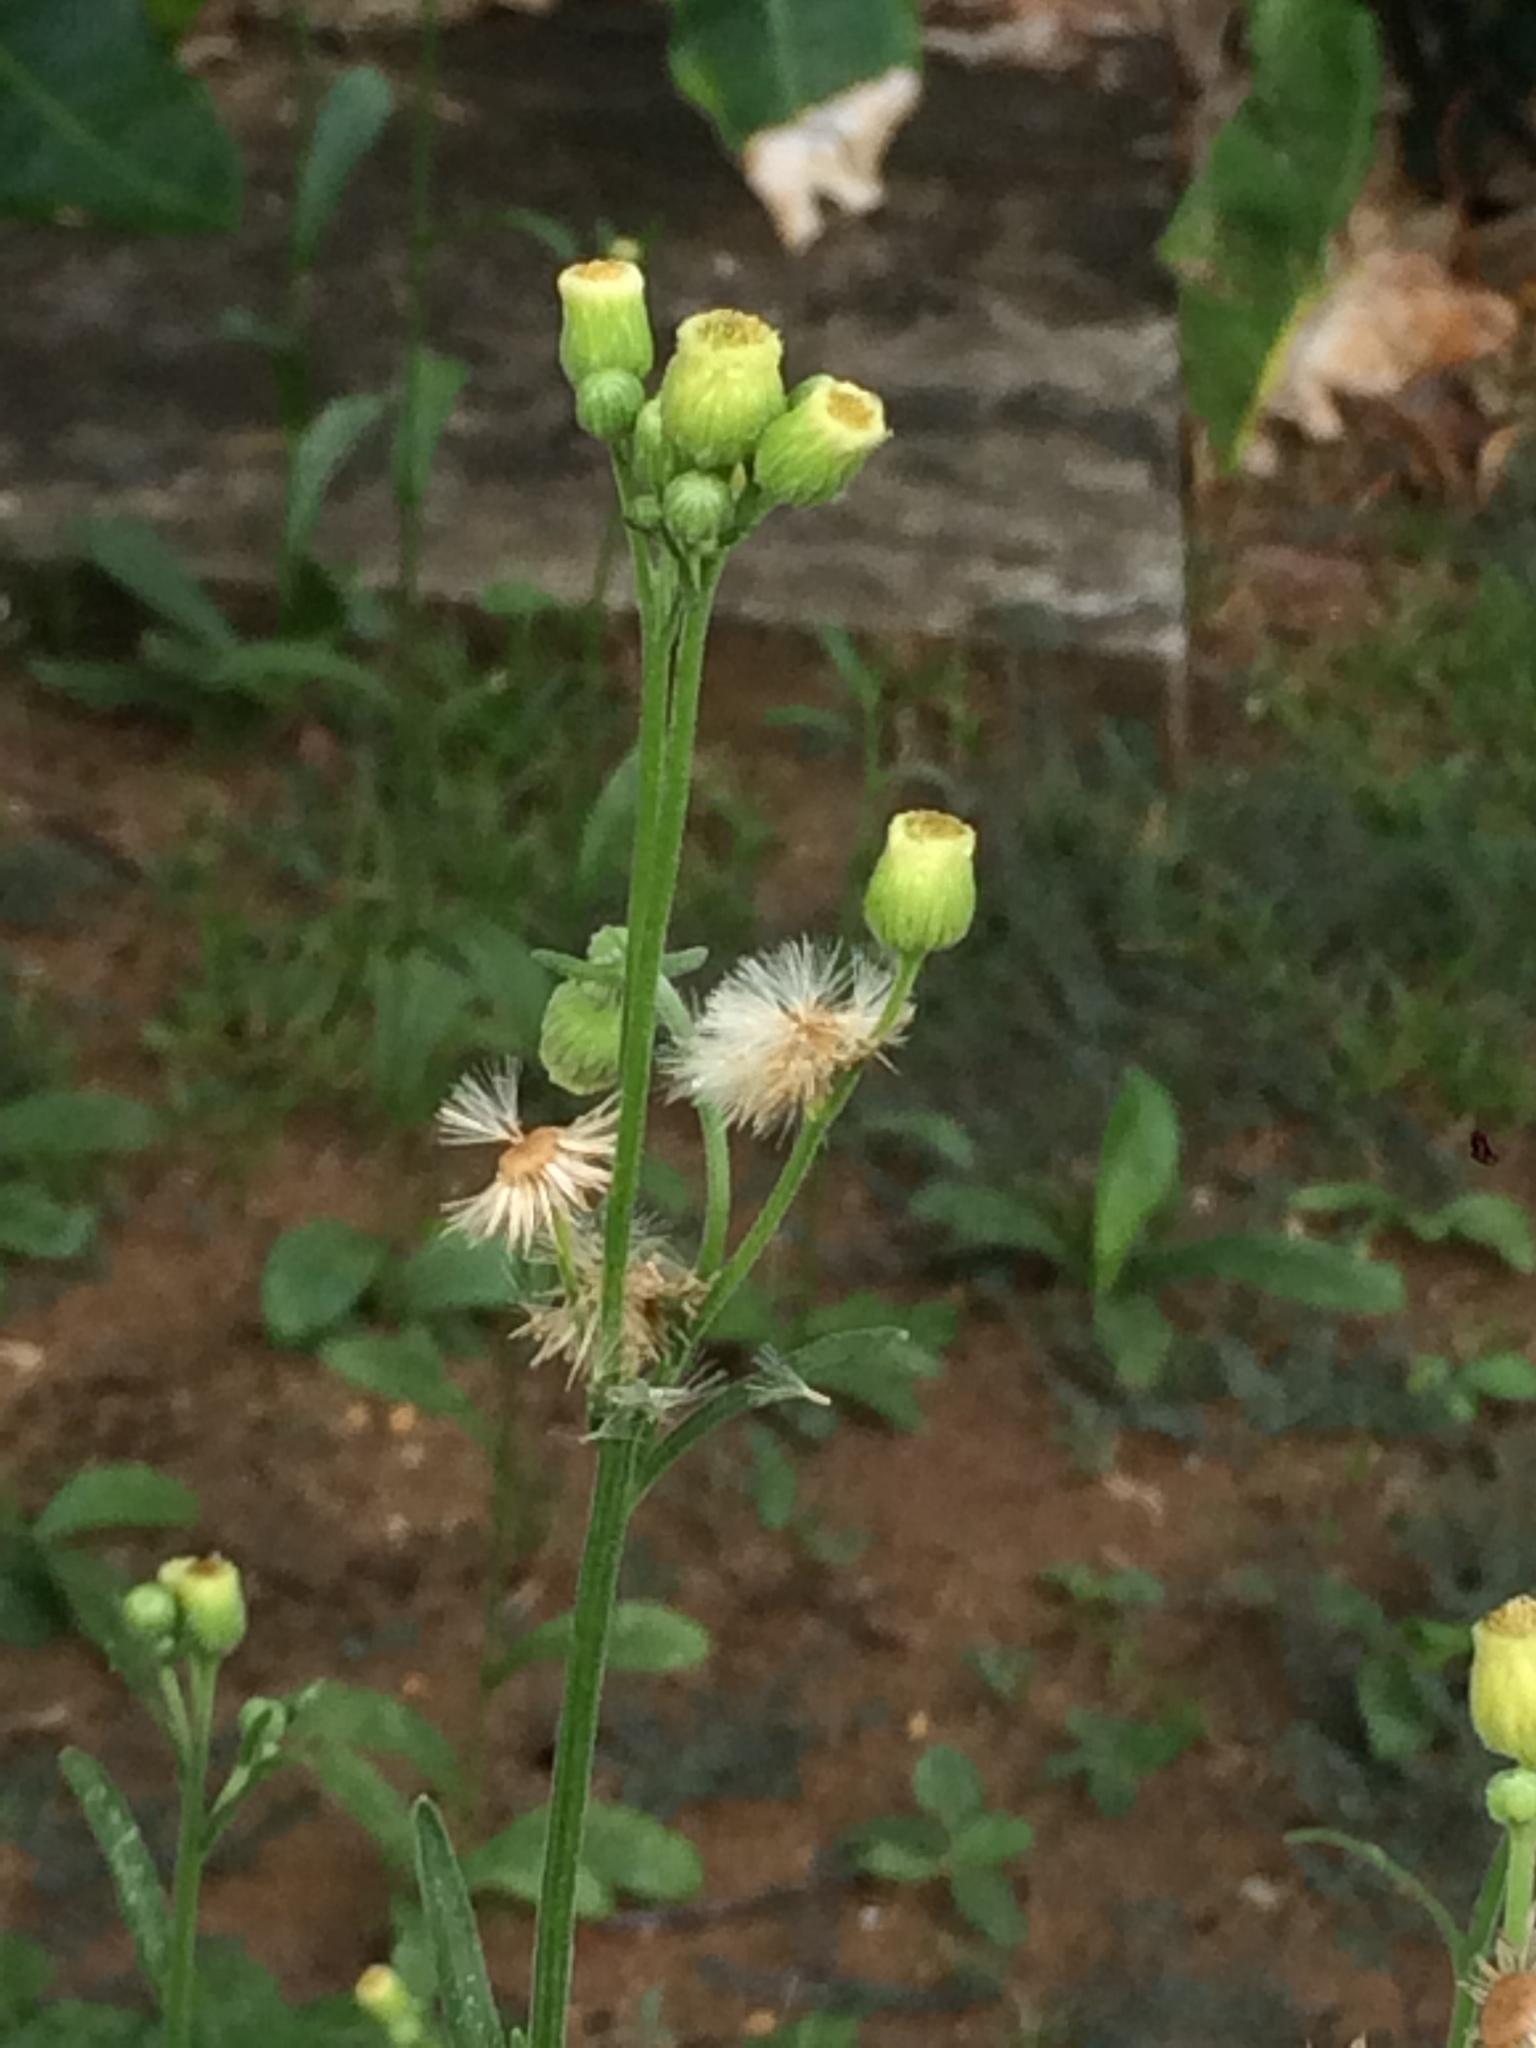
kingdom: Plantae
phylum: Tracheophyta
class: Magnoliopsida
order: Asterales
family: Asteraceae
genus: Erigeron
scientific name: Erigeron primulifolius
